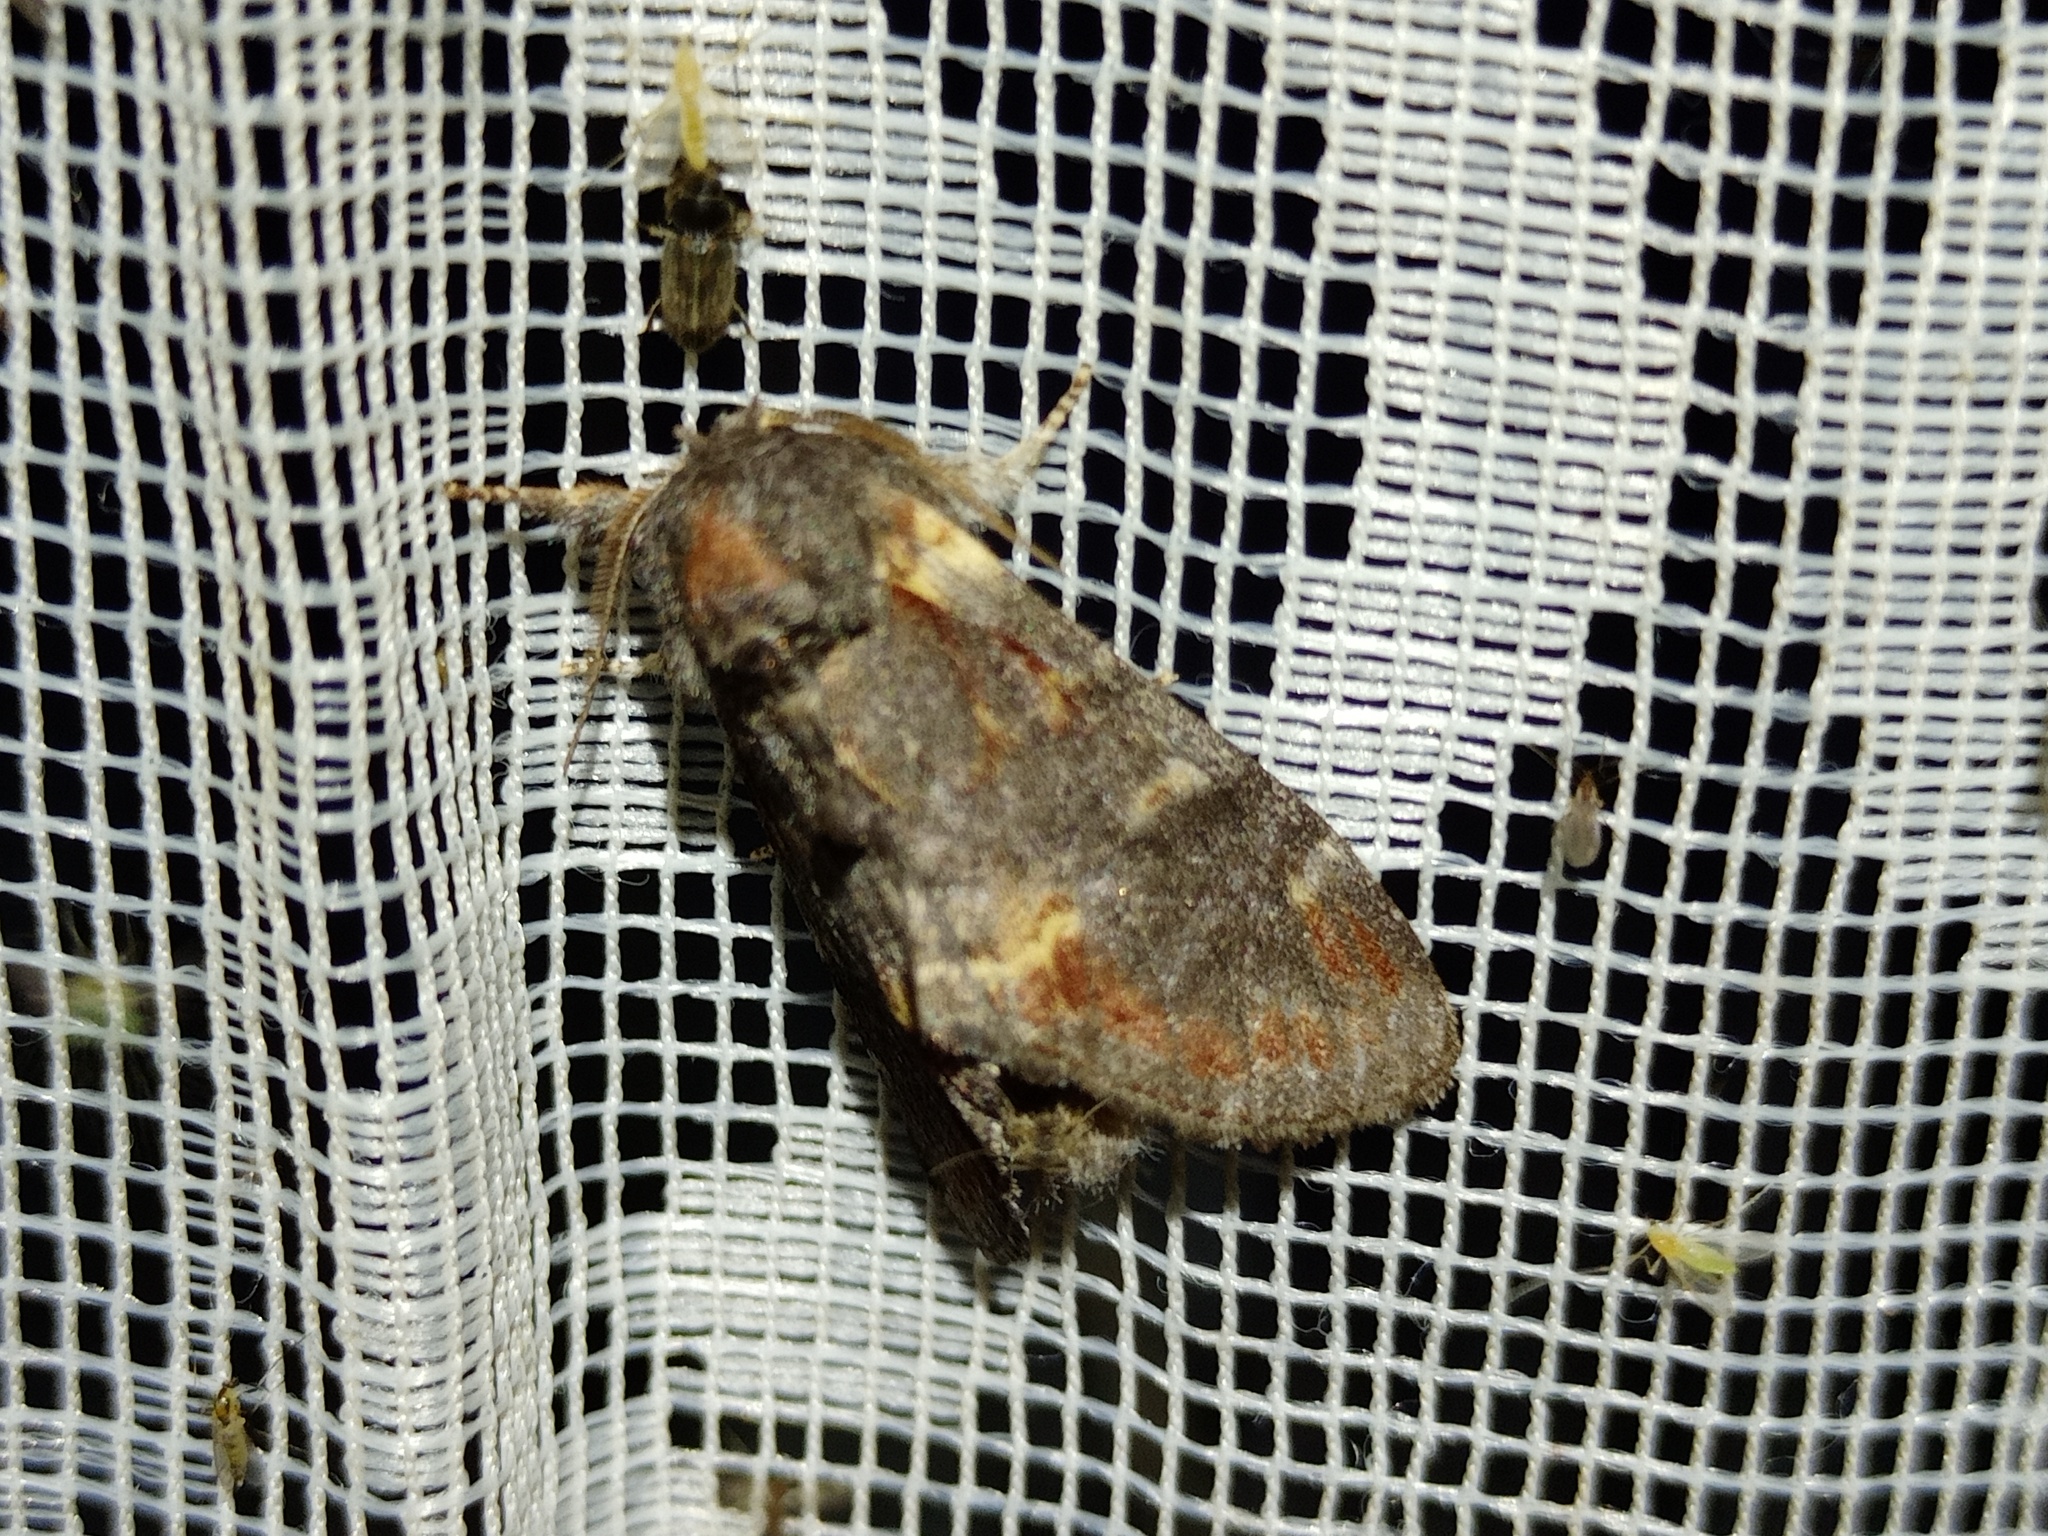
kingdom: Animalia
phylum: Arthropoda
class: Insecta
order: Lepidoptera
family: Notodontidae
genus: Notodonta
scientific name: Notodonta dromedarius
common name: Iron prominent
